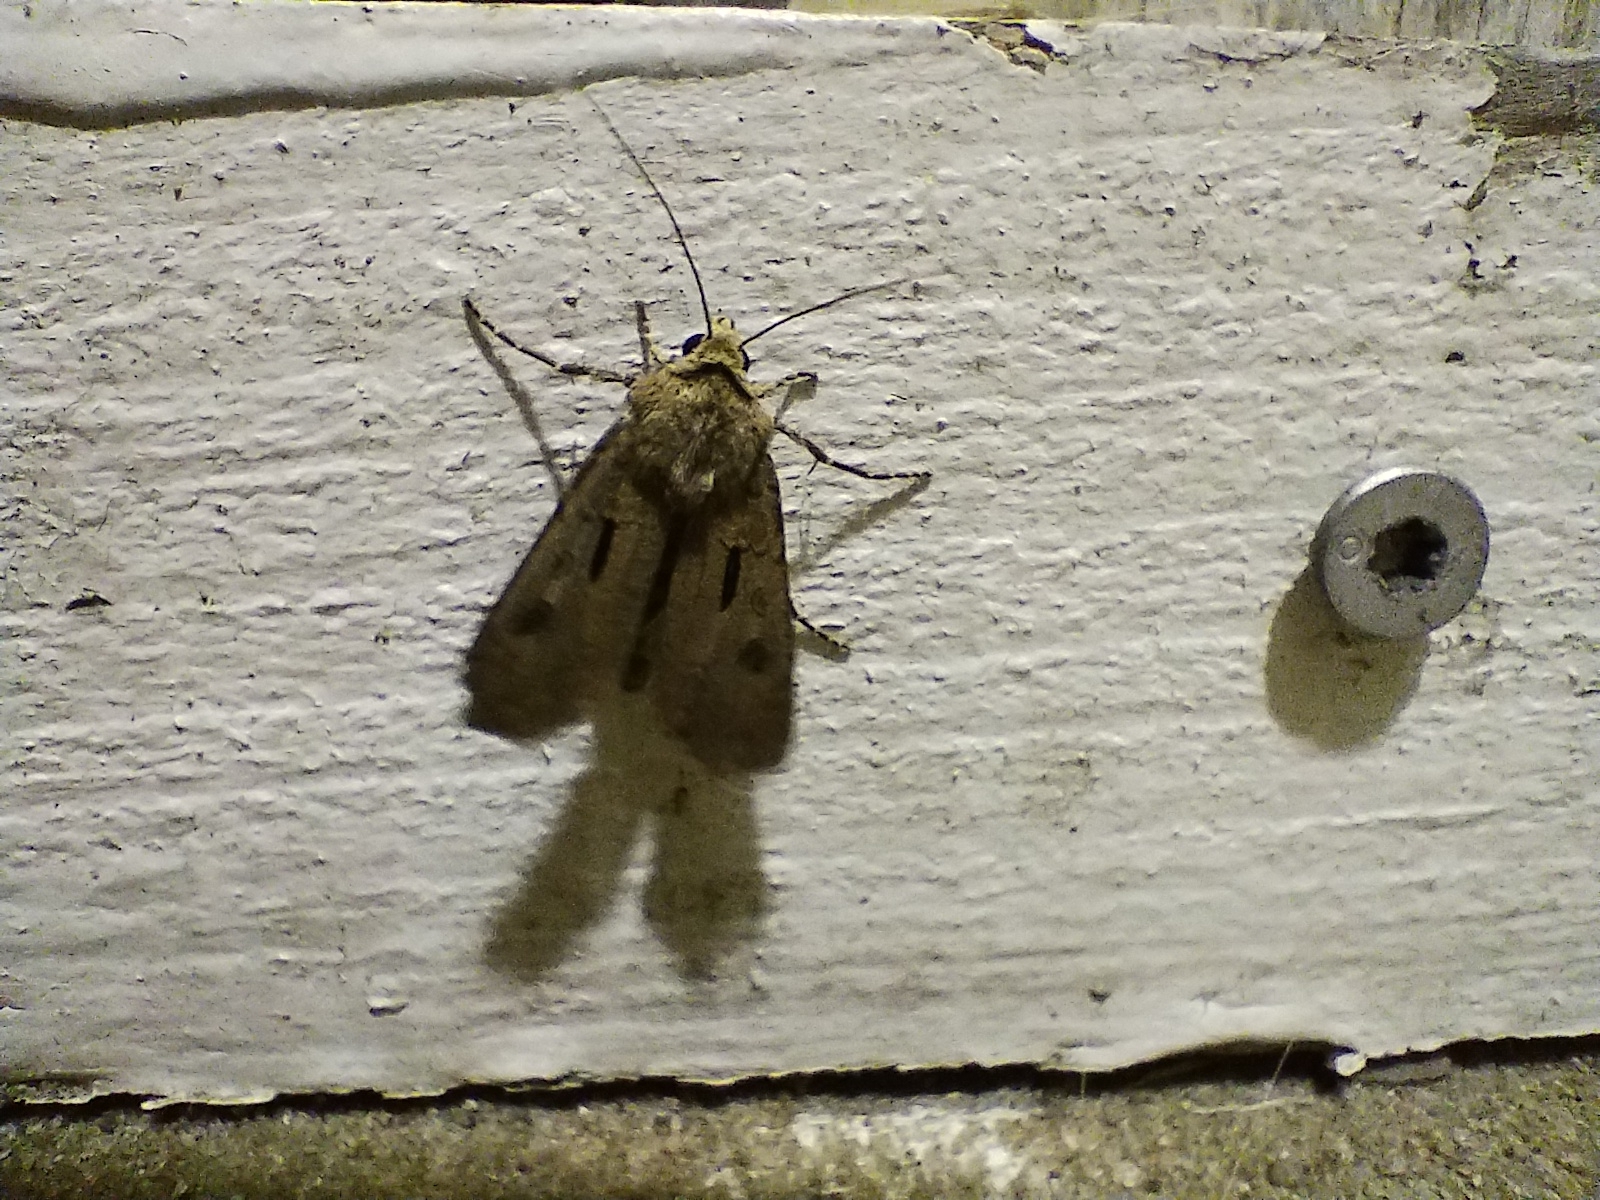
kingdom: Animalia
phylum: Arthropoda
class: Insecta
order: Lepidoptera
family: Noctuidae
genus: Agrotis
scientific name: Agrotis exclamationis
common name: Heart and dart
